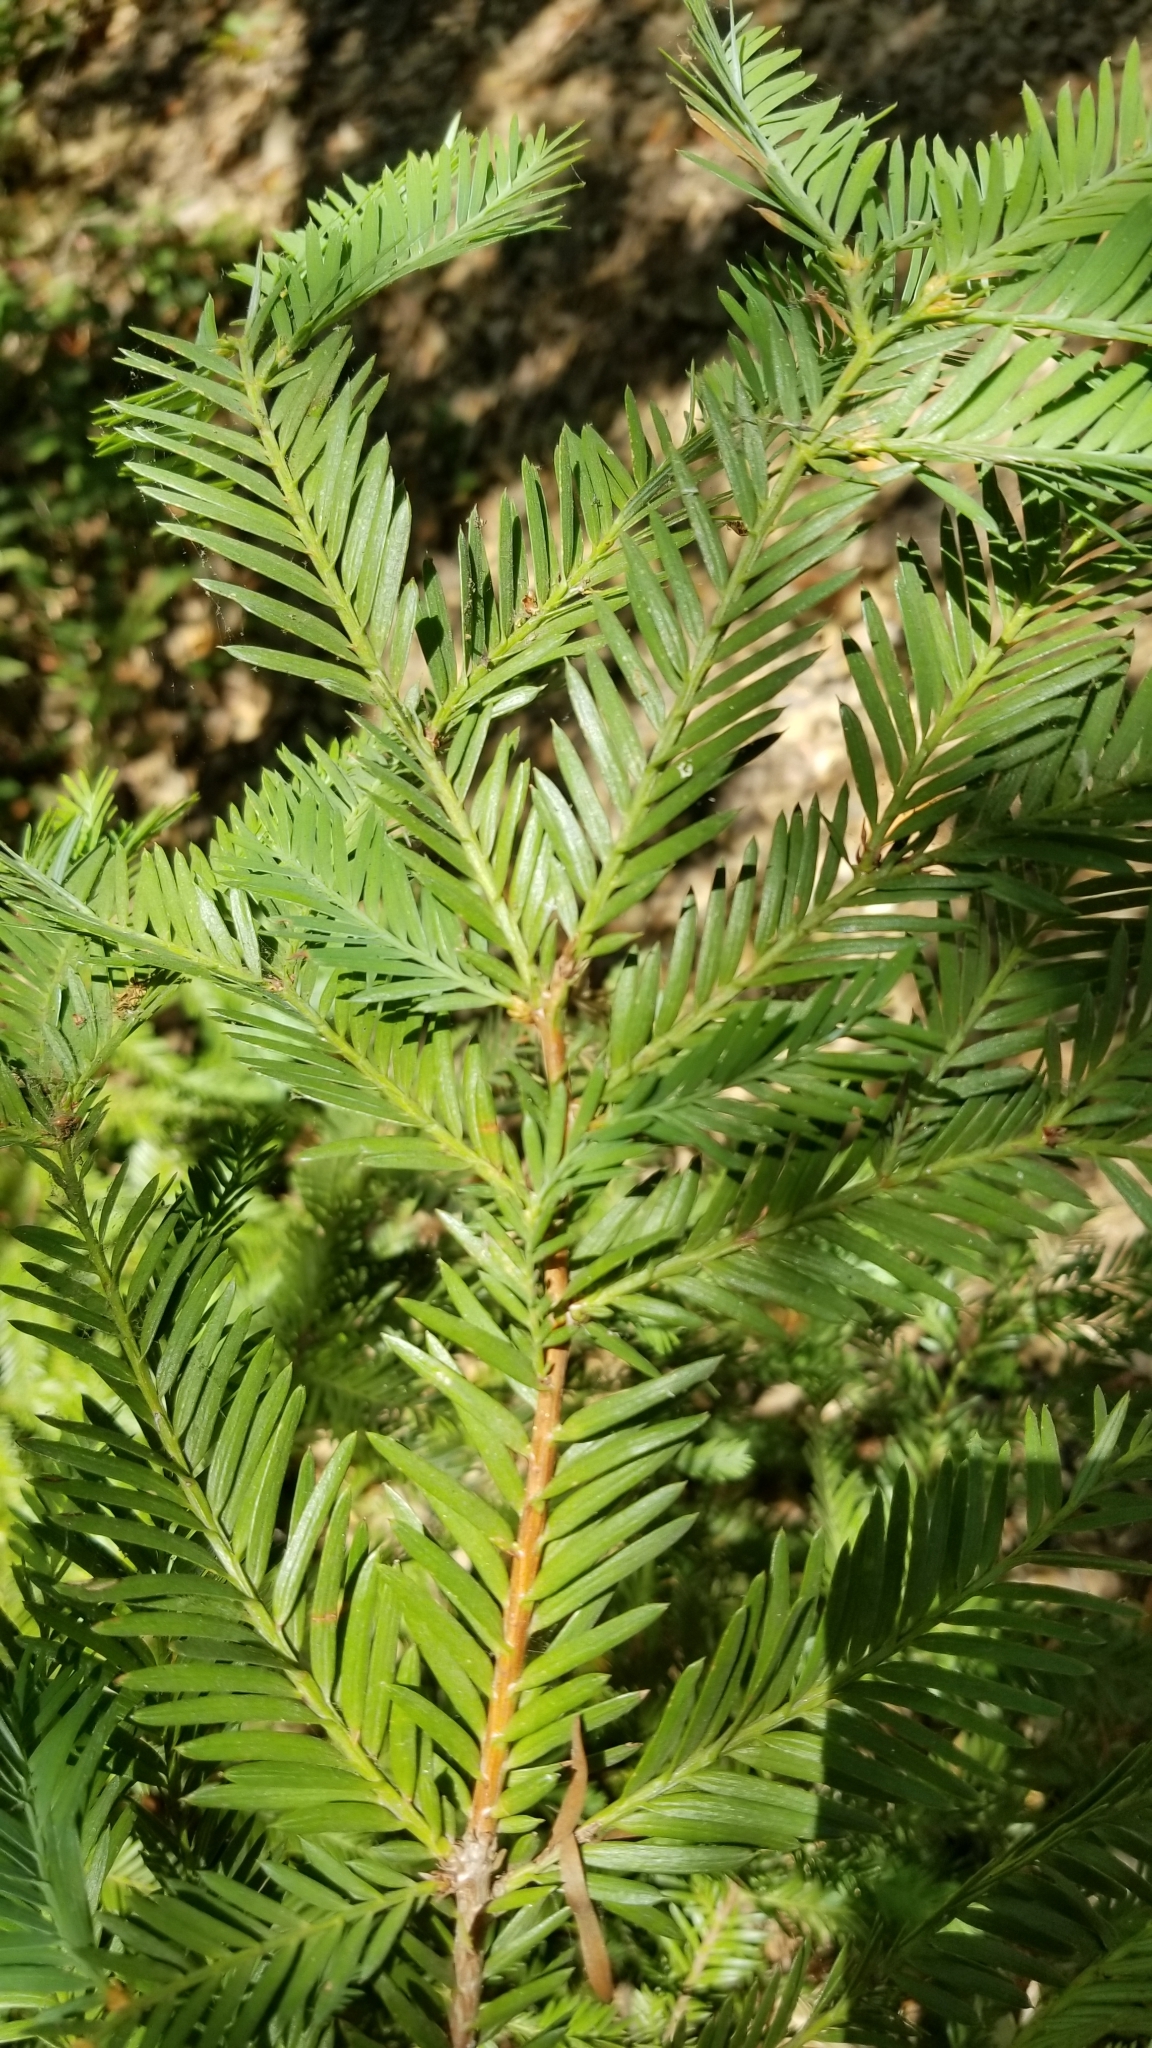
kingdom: Plantae
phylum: Tracheophyta
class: Pinopsida
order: Pinales
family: Cupressaceae
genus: Sequoia
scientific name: Sequoia sempervirens
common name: Coast redwood
